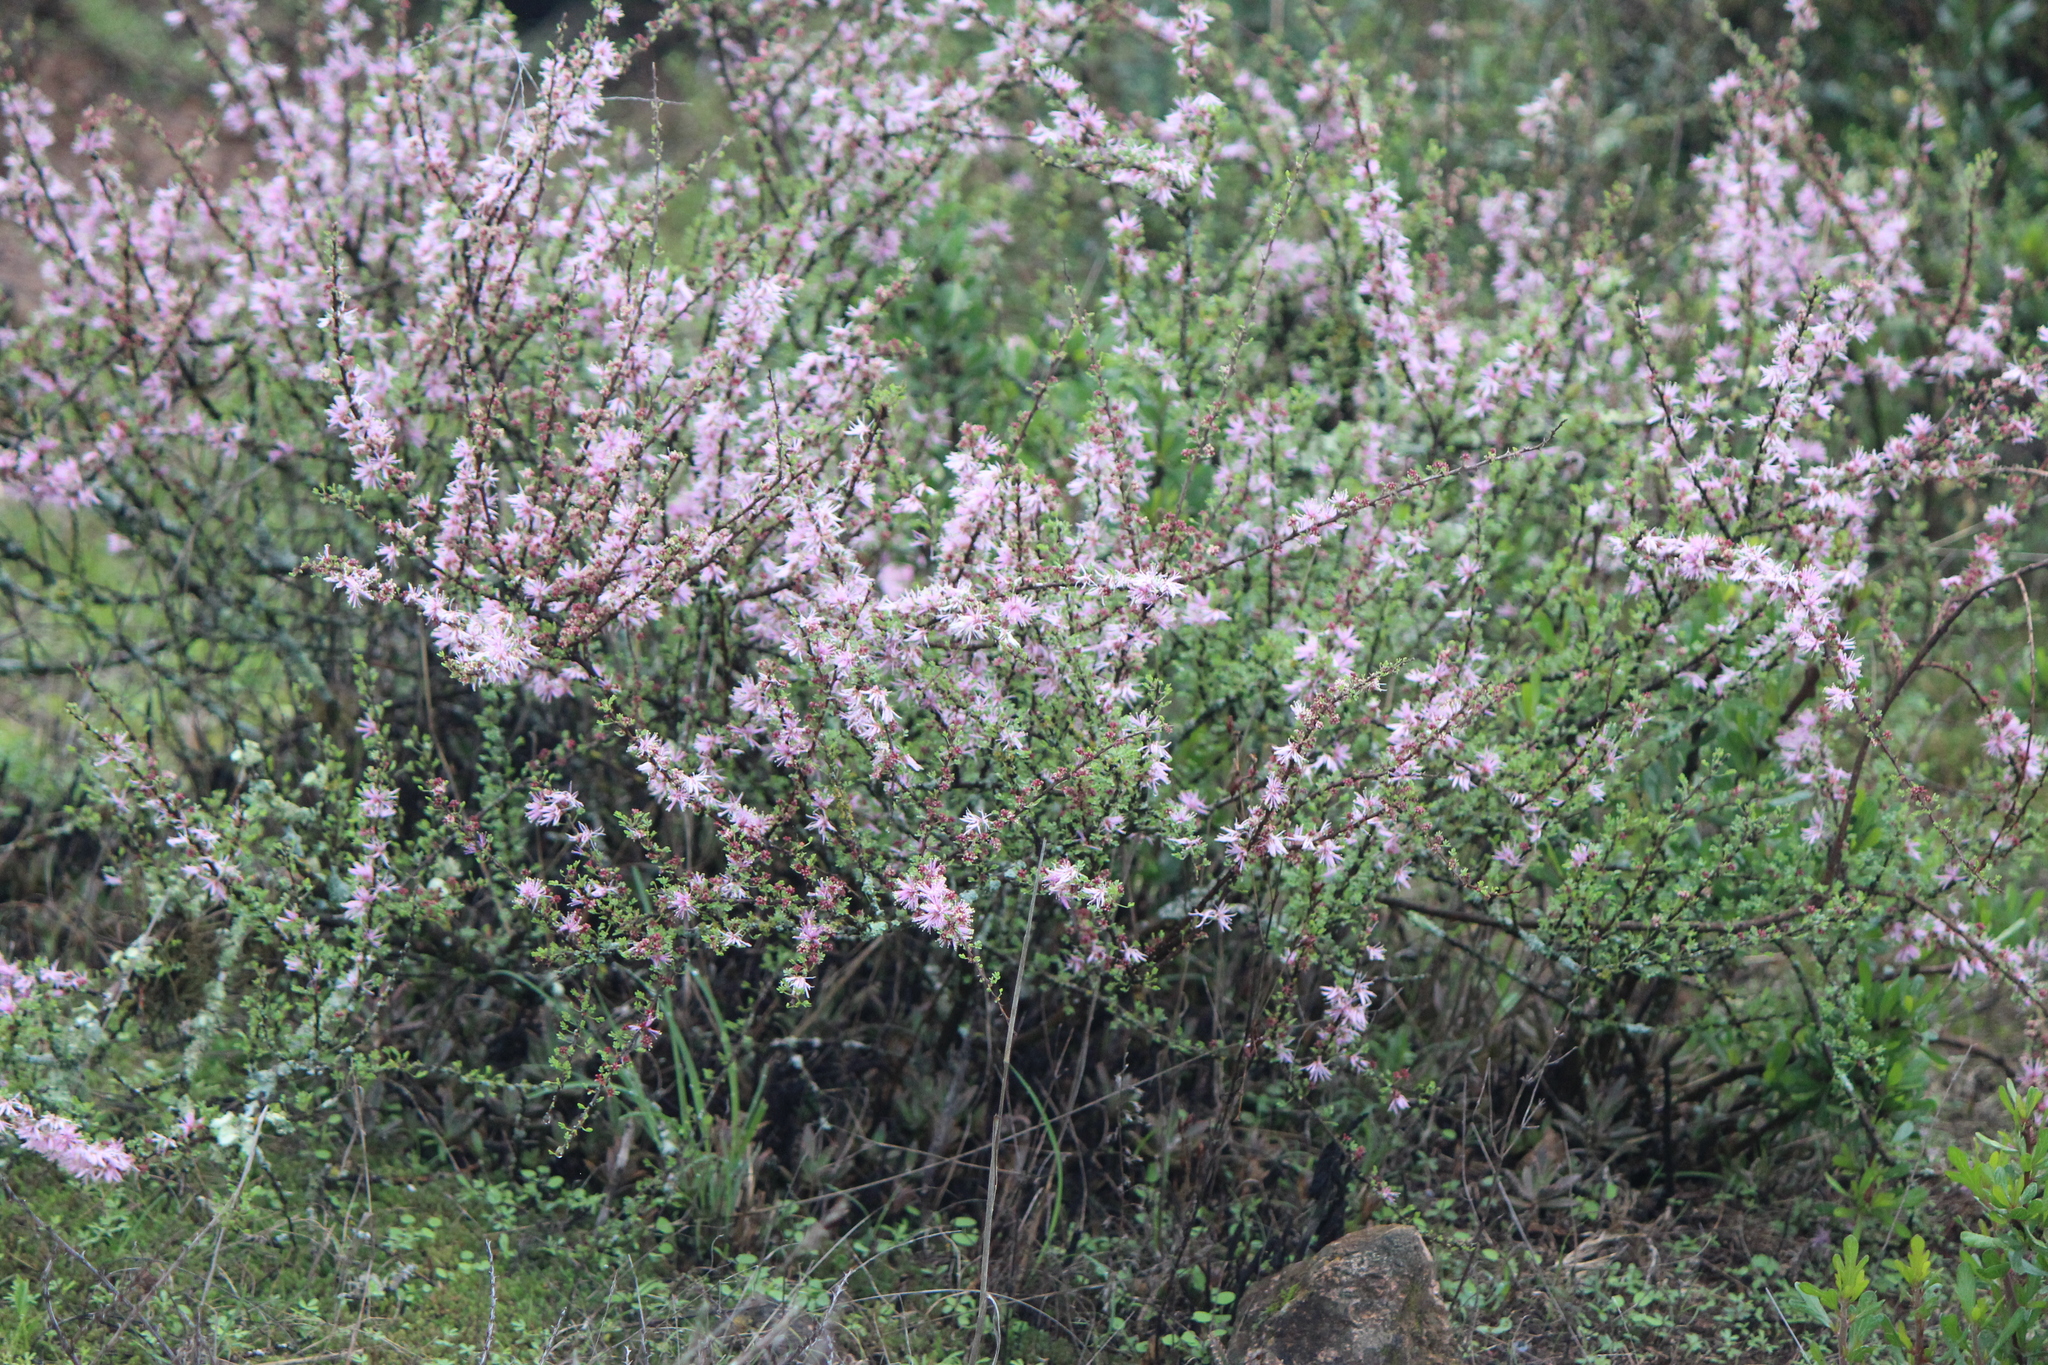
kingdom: Plantae
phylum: Tracheophyta
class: Magnoliopsida
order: Fabales
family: Fabaceae
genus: Mimosa
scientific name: Mimosa zygophylla
